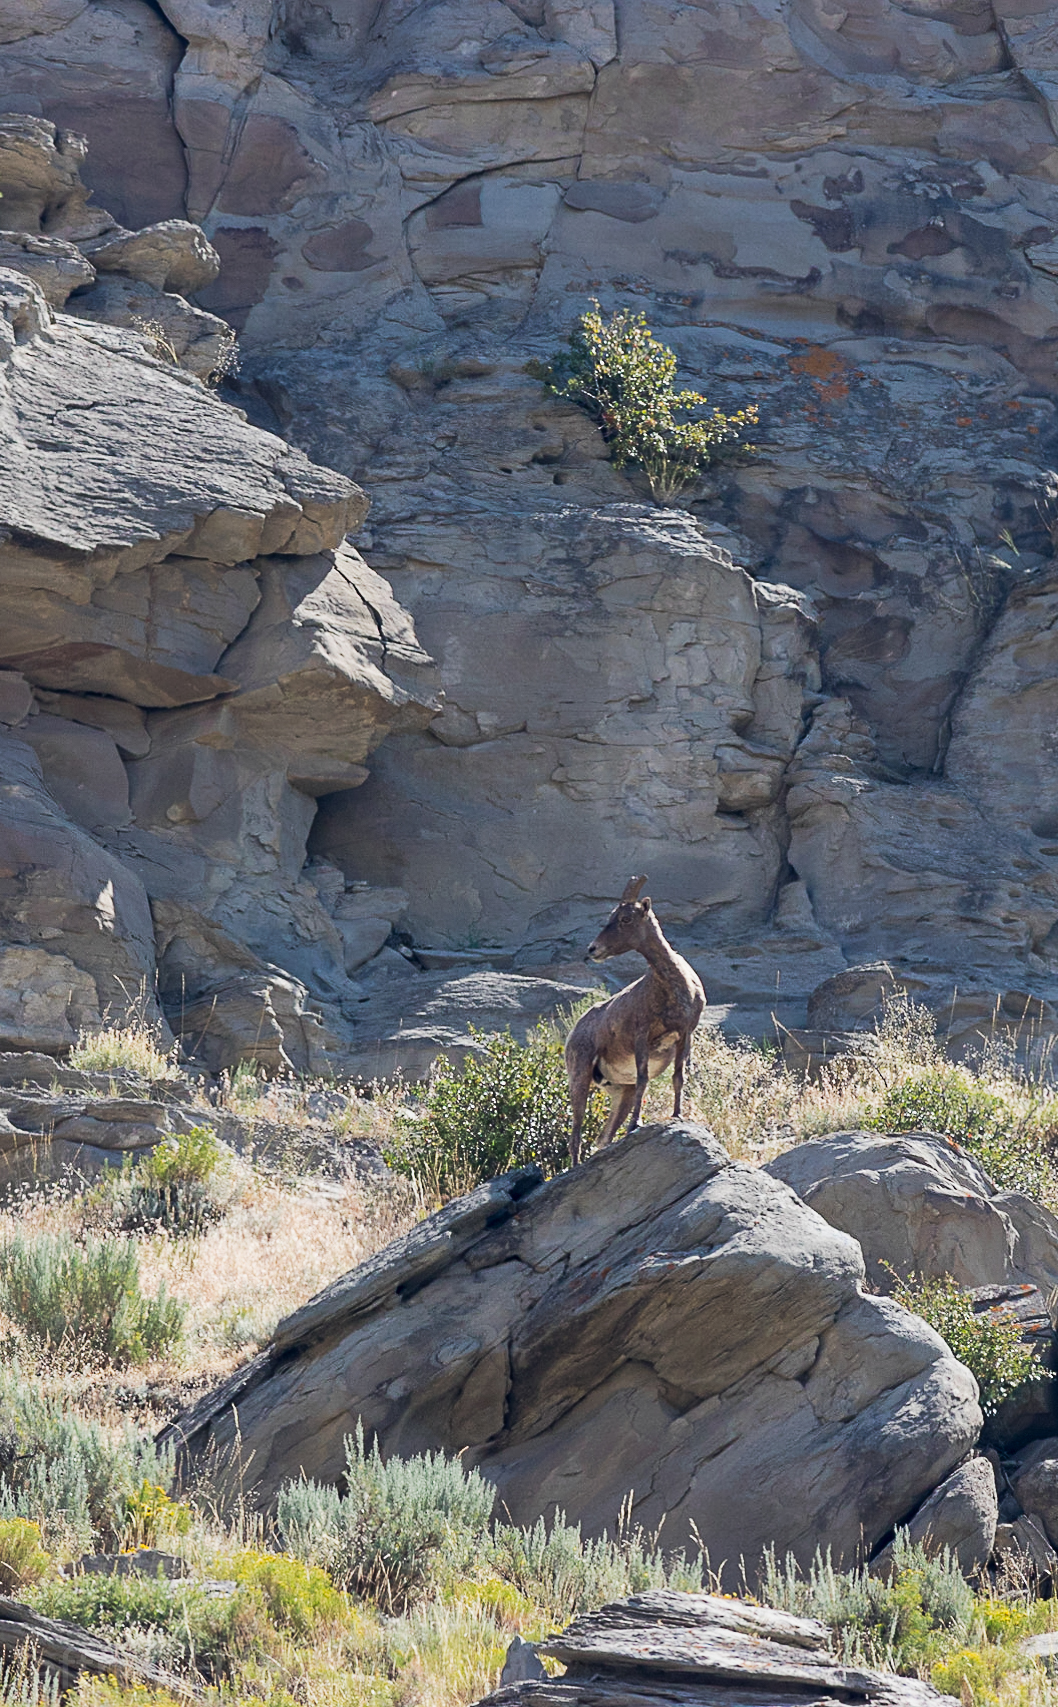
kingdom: Animalia
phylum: Chordata
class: Mammalia
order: Artiodactyla
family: Bovidae
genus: Ovis
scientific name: Ovis canadensis
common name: Bighorn sheep
